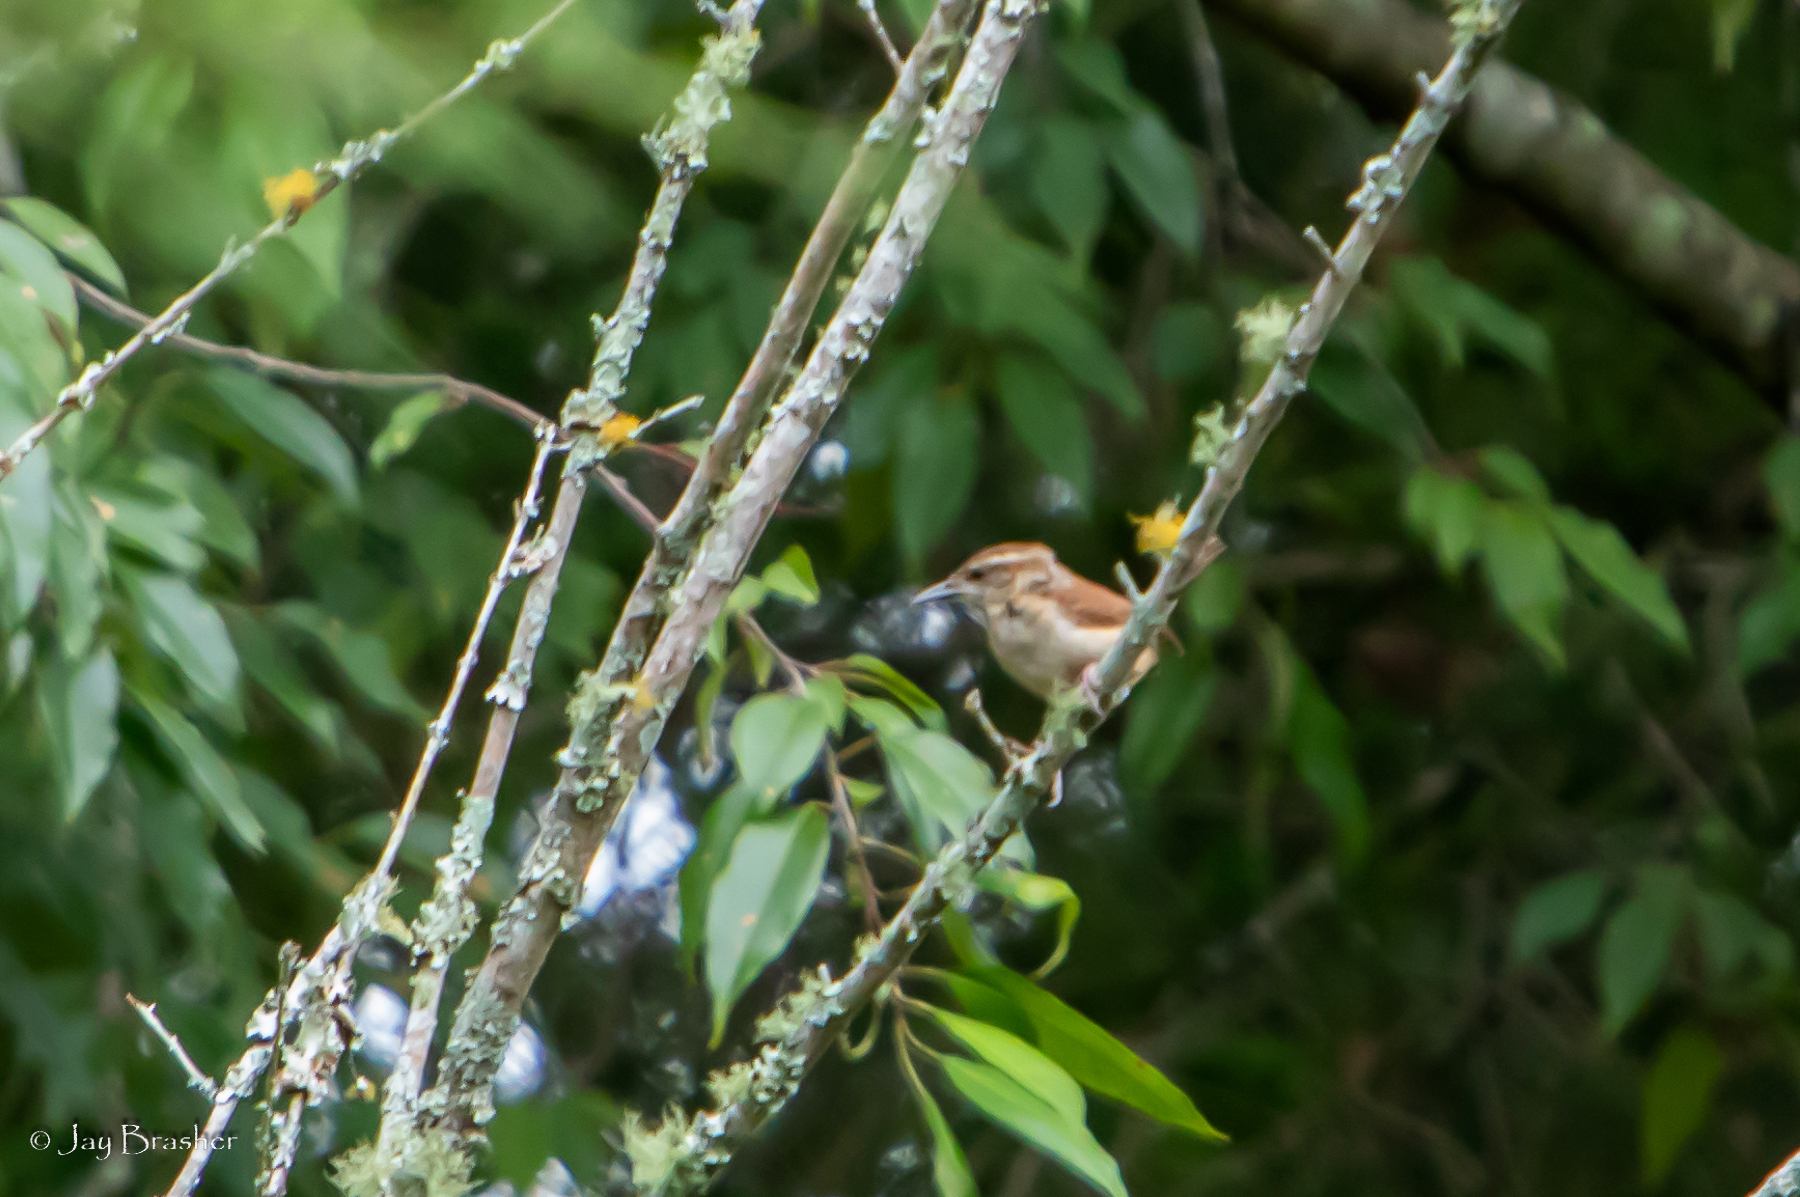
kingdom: Animalia
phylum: Chordata
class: Aves
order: Passeriformes
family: Troglodytidae
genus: Thryothorus
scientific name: Thryothorus ludovicianus
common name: Carolina wren
